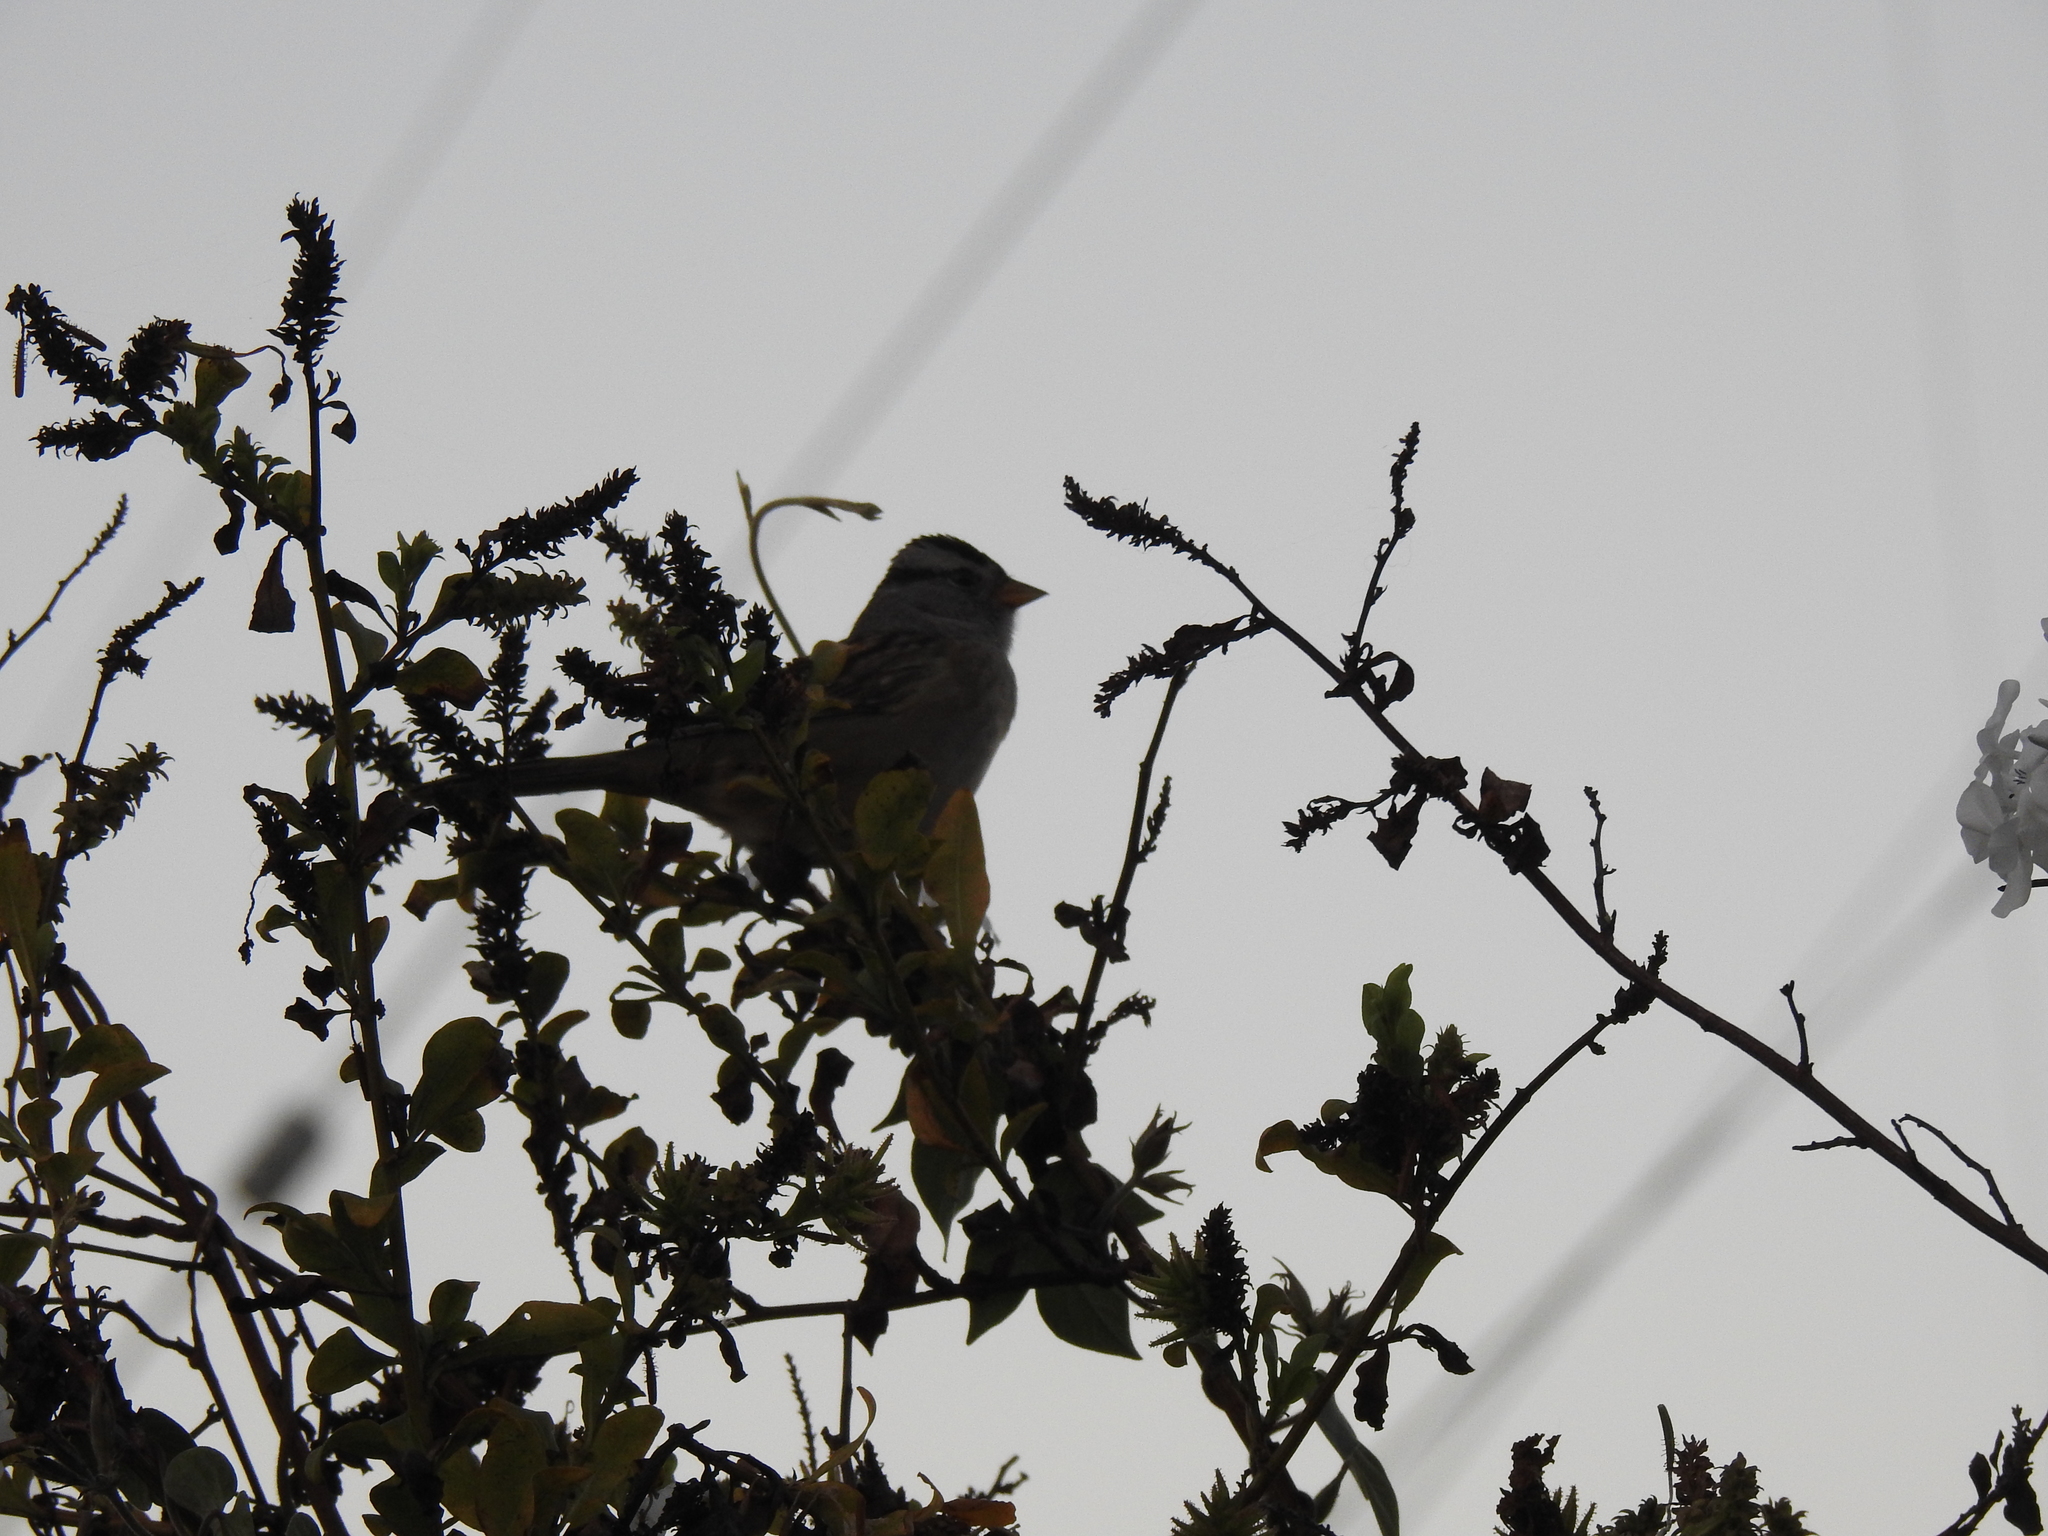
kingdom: Animalia
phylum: Chordata
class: Aves
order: Passeriformes
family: Passerellidae
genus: Zonotrichia
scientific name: Zonotrichia leucophrys
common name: White-crowned sparrow
